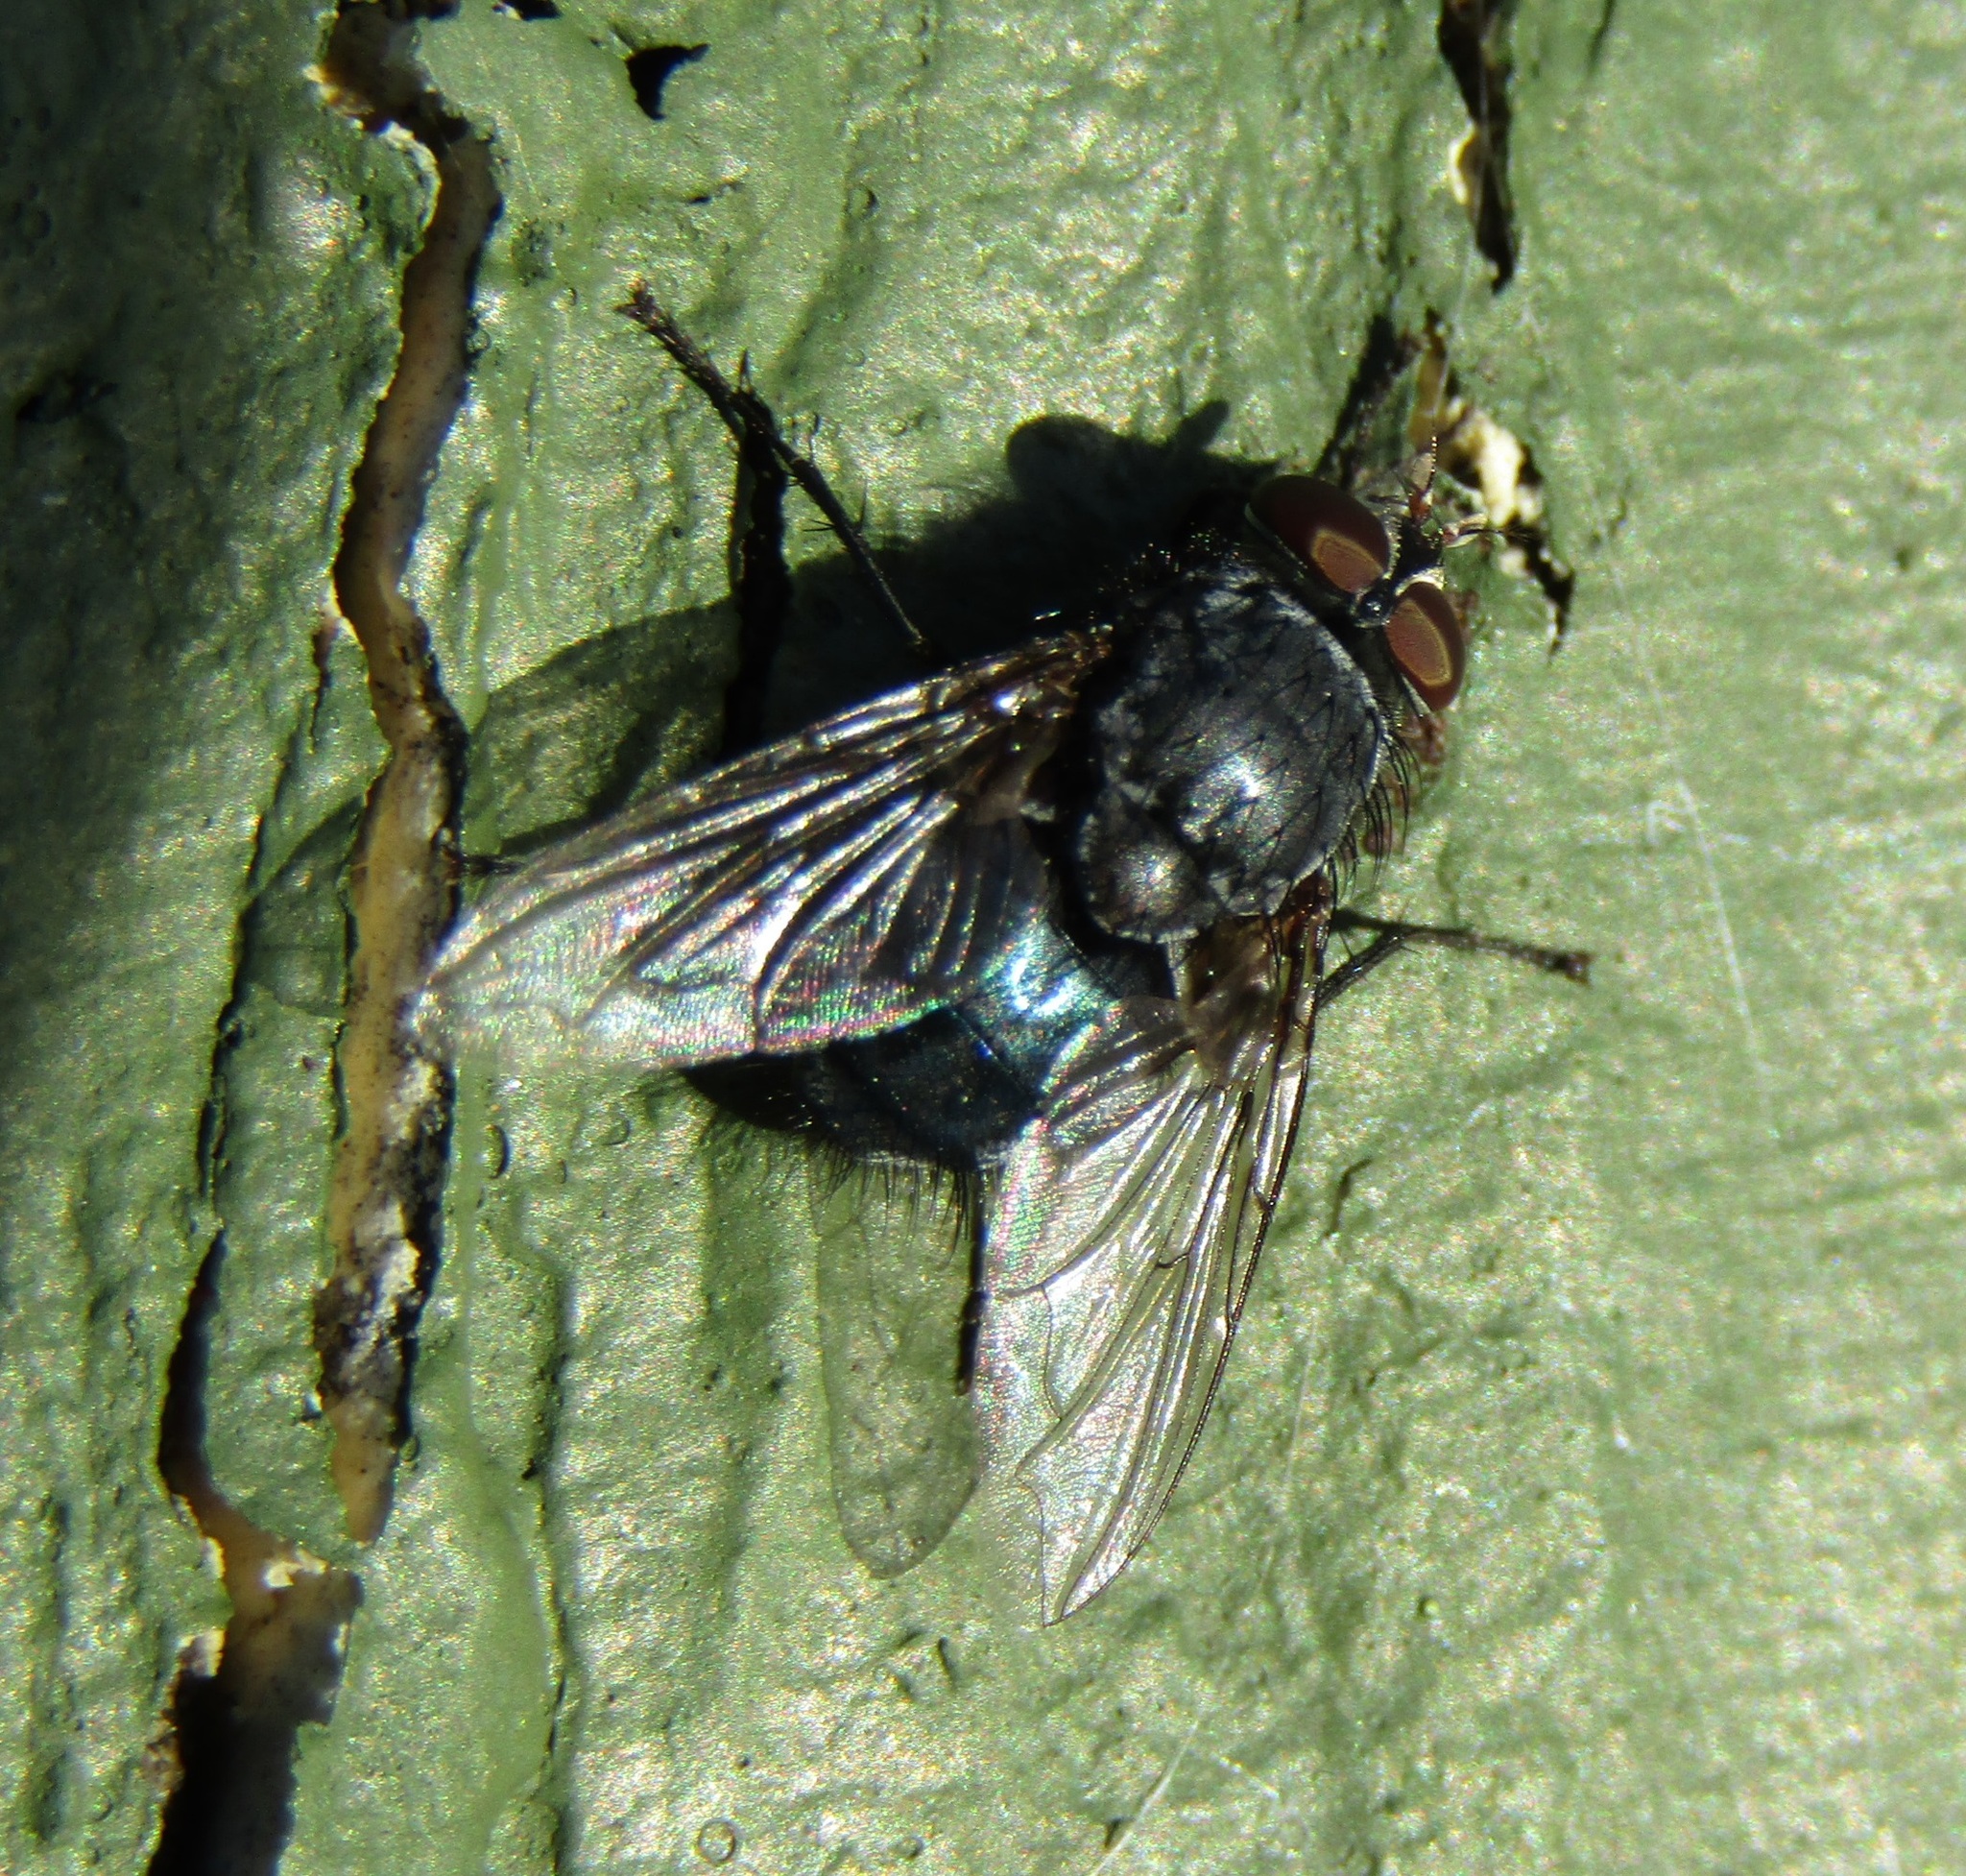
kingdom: Animalia
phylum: Arthropoda
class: Insecta
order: Diptera
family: Calliphoridae
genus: Calliphora
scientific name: Calliphora vicina
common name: Common blow flie
